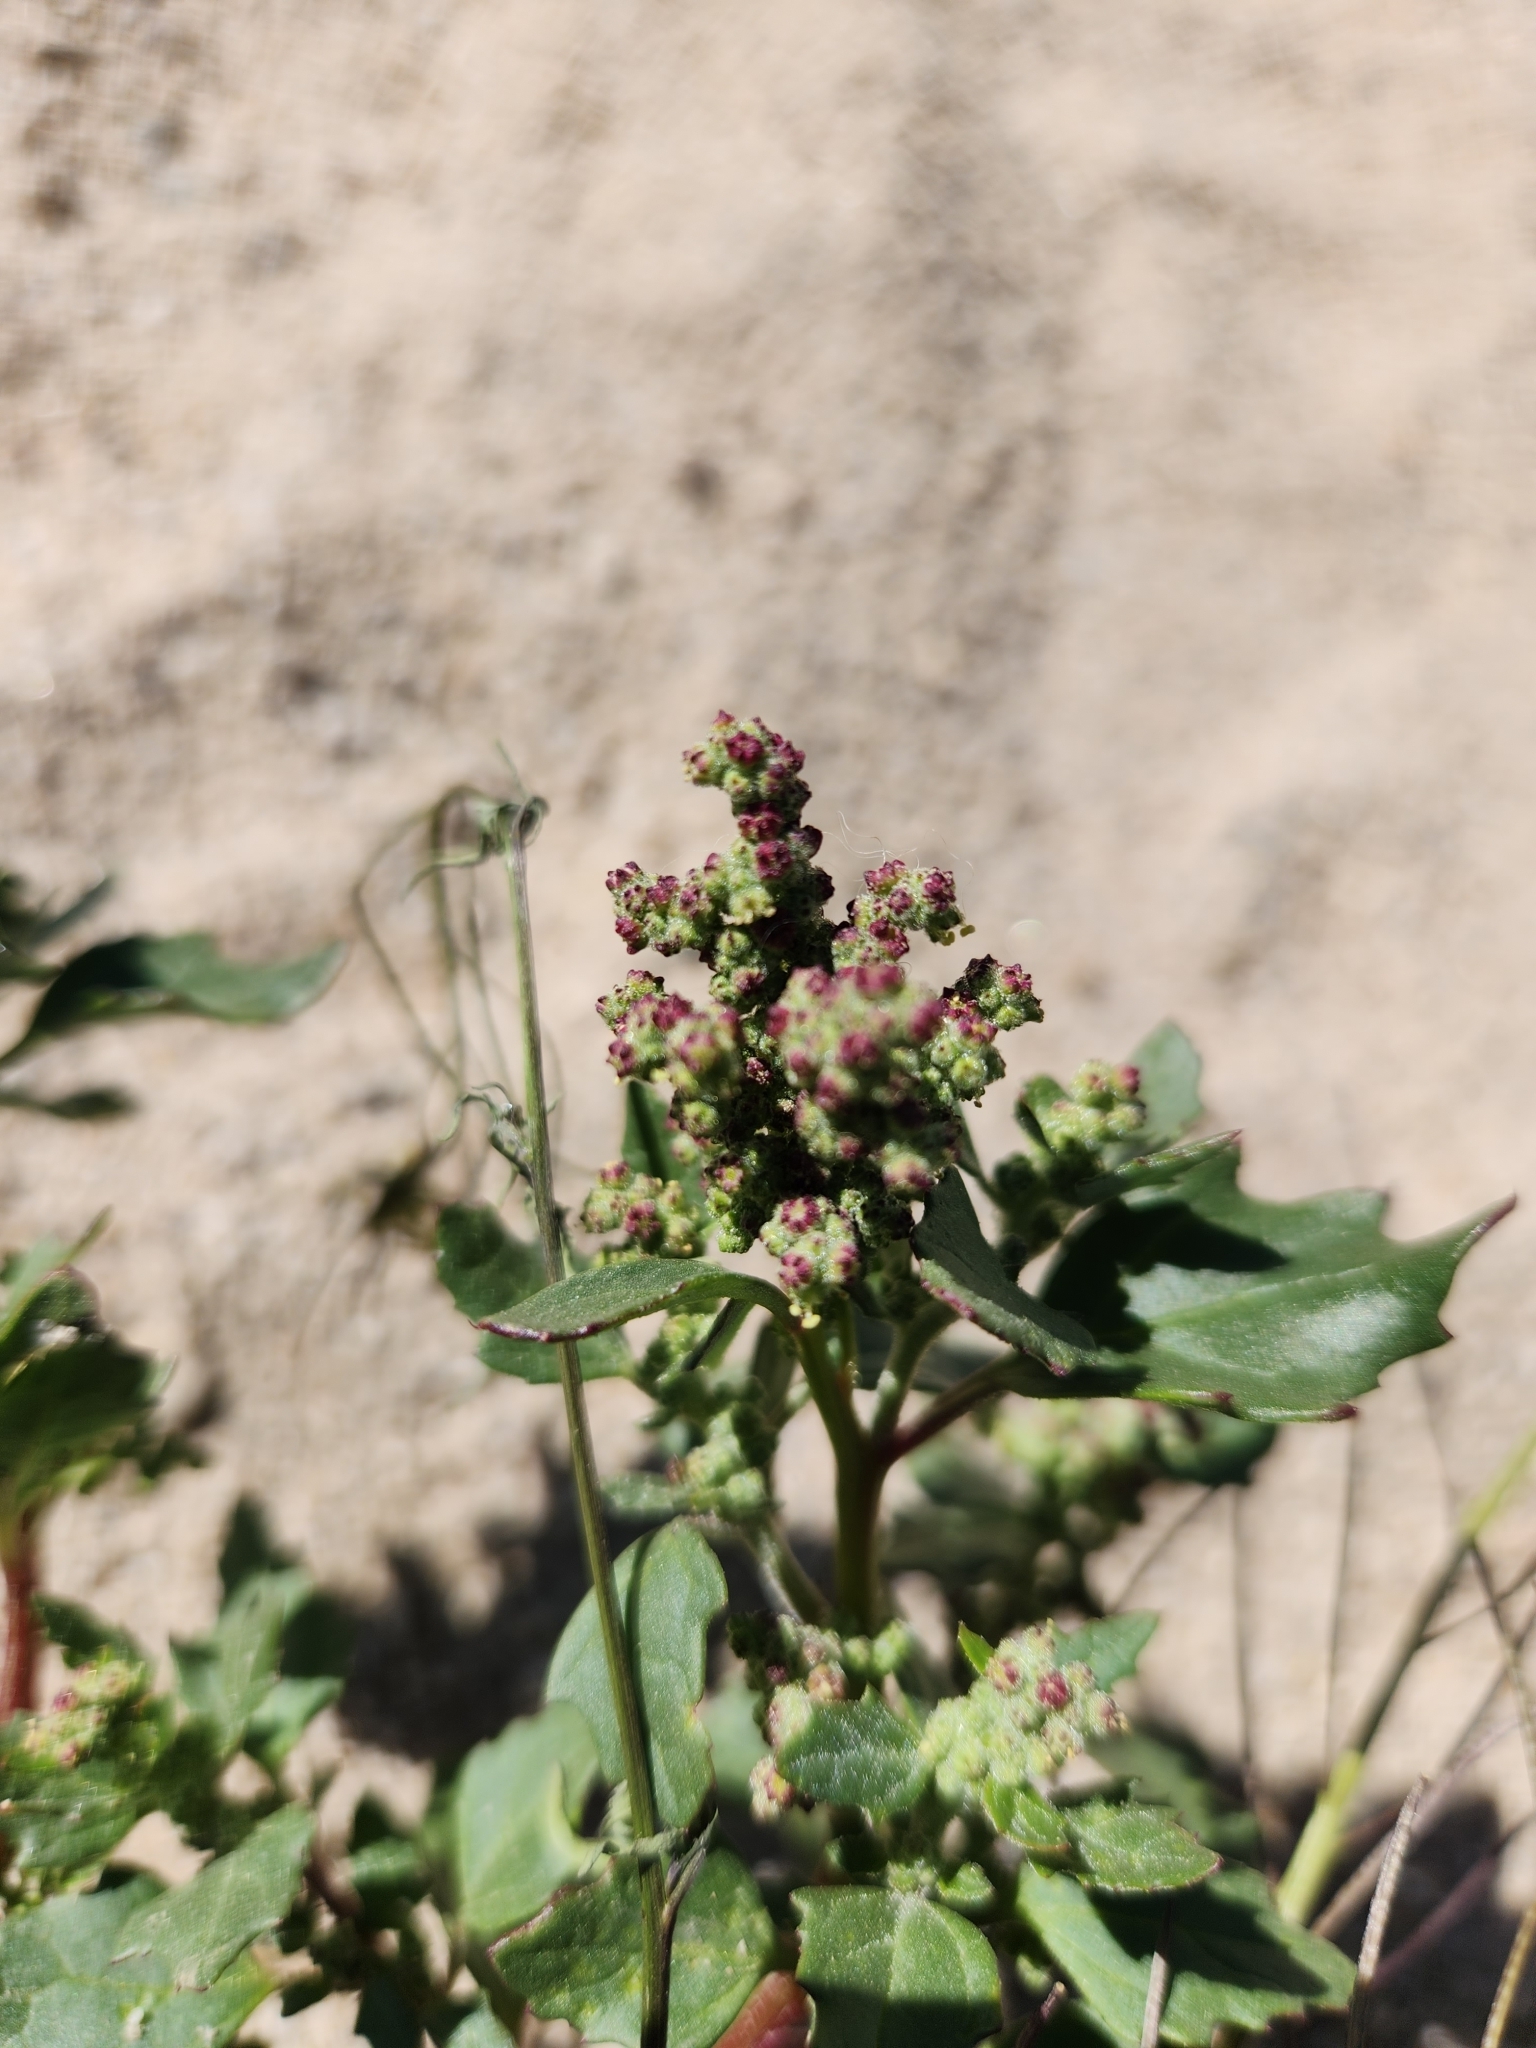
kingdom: Plantae
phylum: Tracheophyta
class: Magnoliopsida
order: Caryophyllales
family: Amaranthaceae
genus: Chenopodiastrum
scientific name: Chenopodiastrum murale
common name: Sowbane
